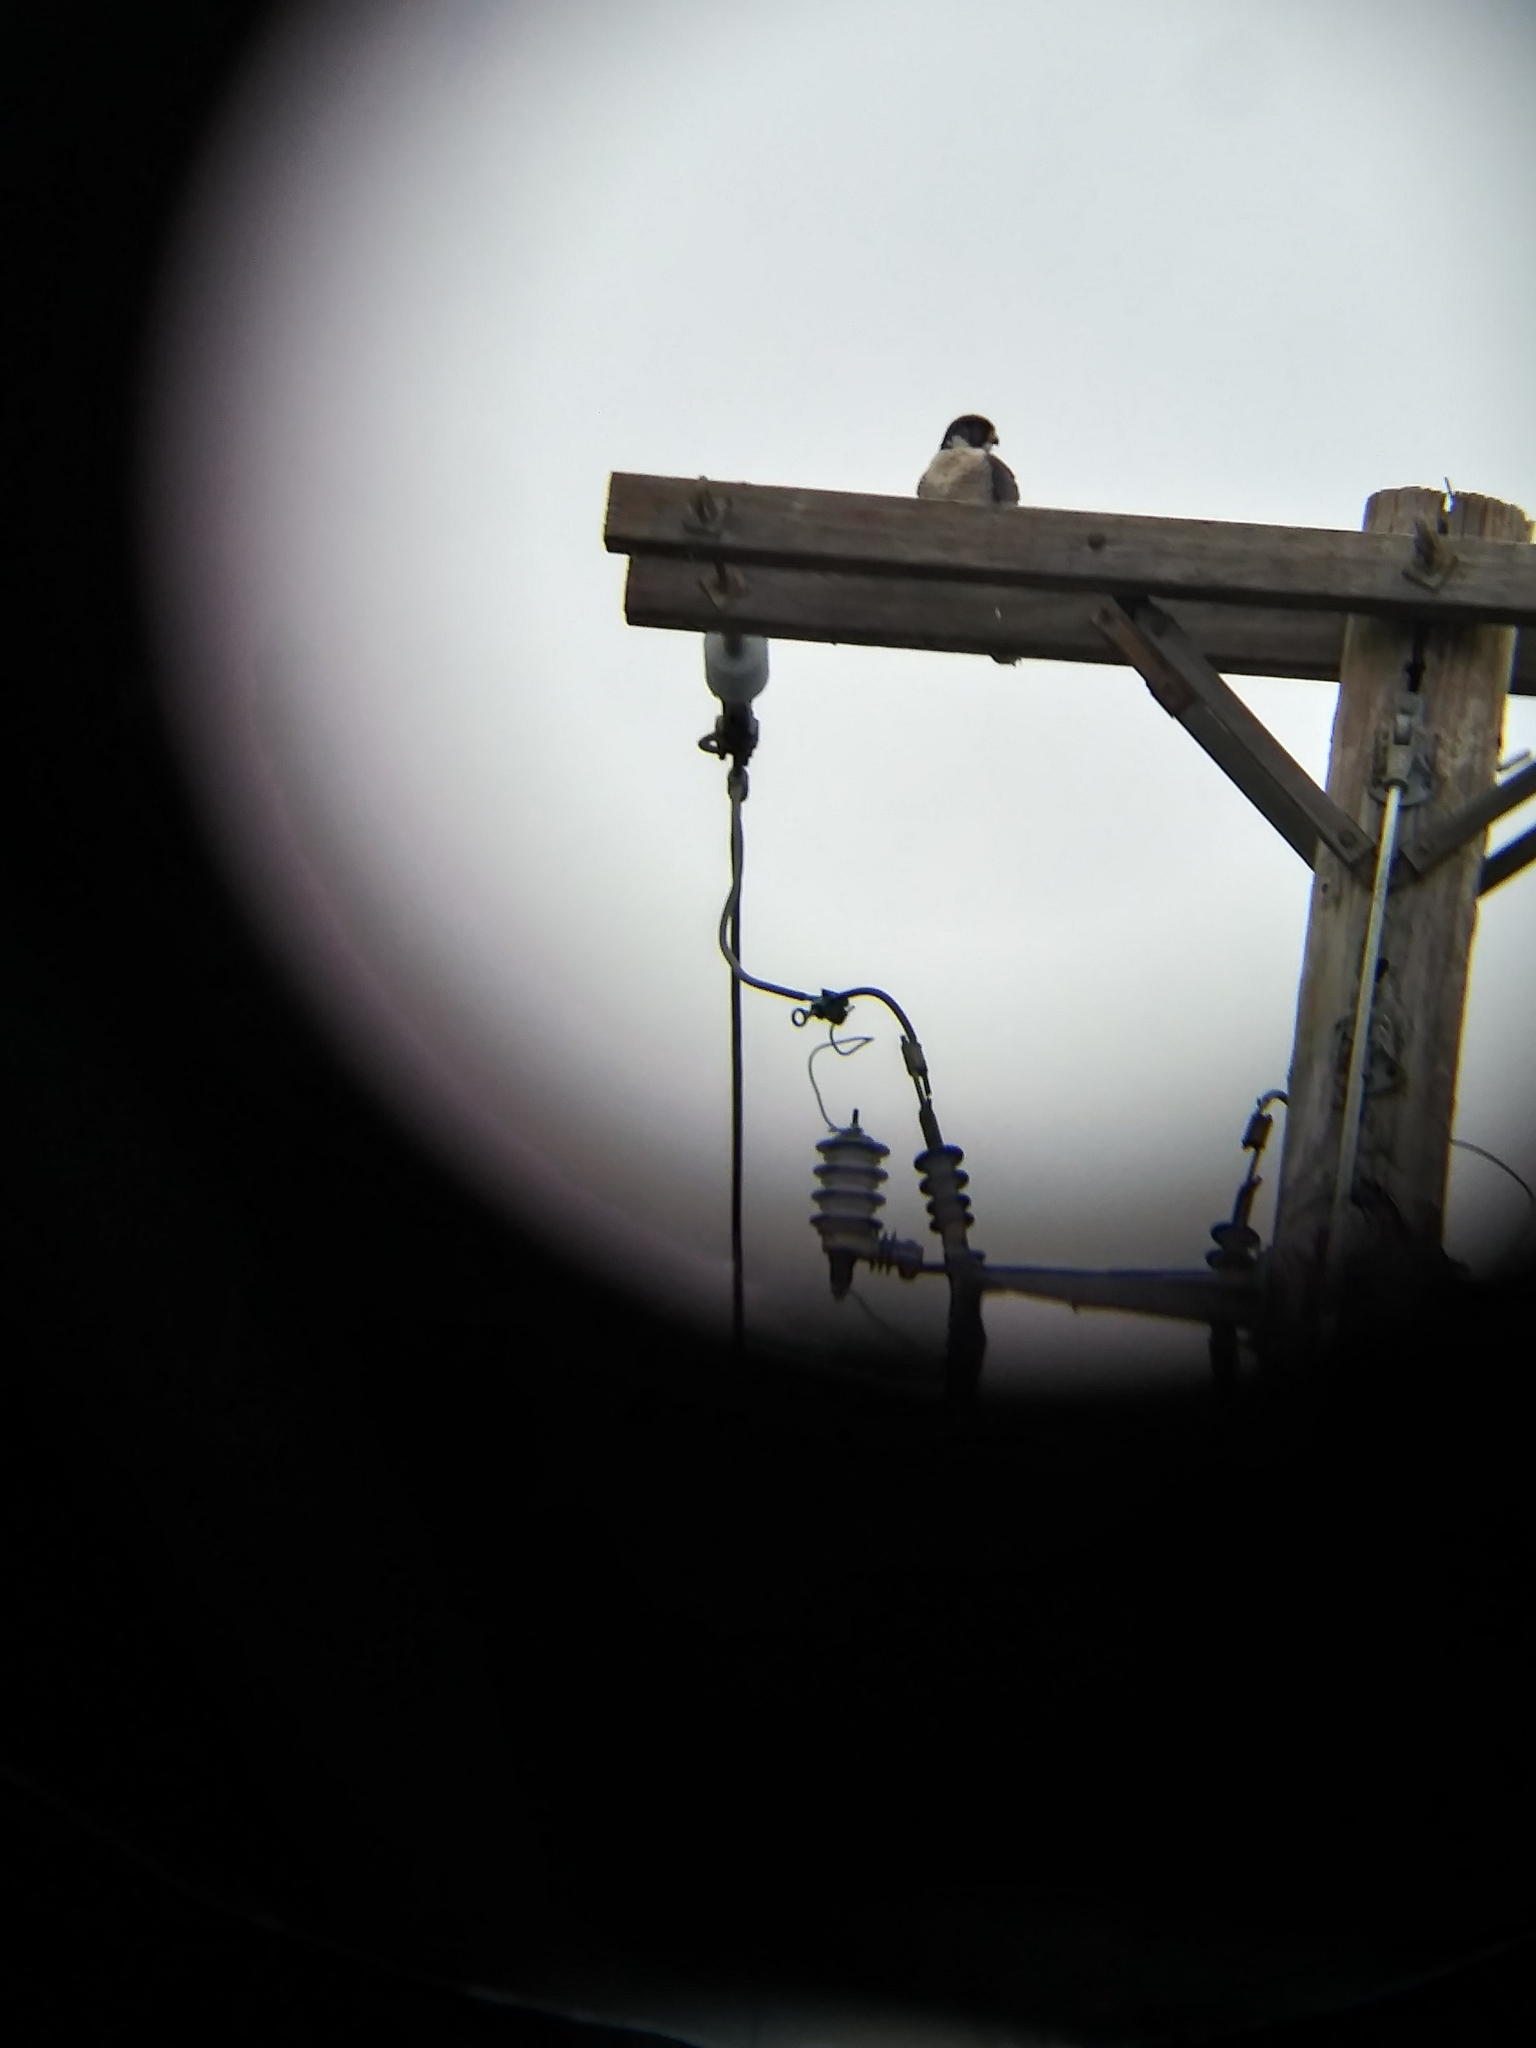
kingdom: Animalia
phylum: Chordata
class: Aves
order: Falconiformes
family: Falconidae
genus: Falco
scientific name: Falco peregrinus
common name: Peregrine falcon
